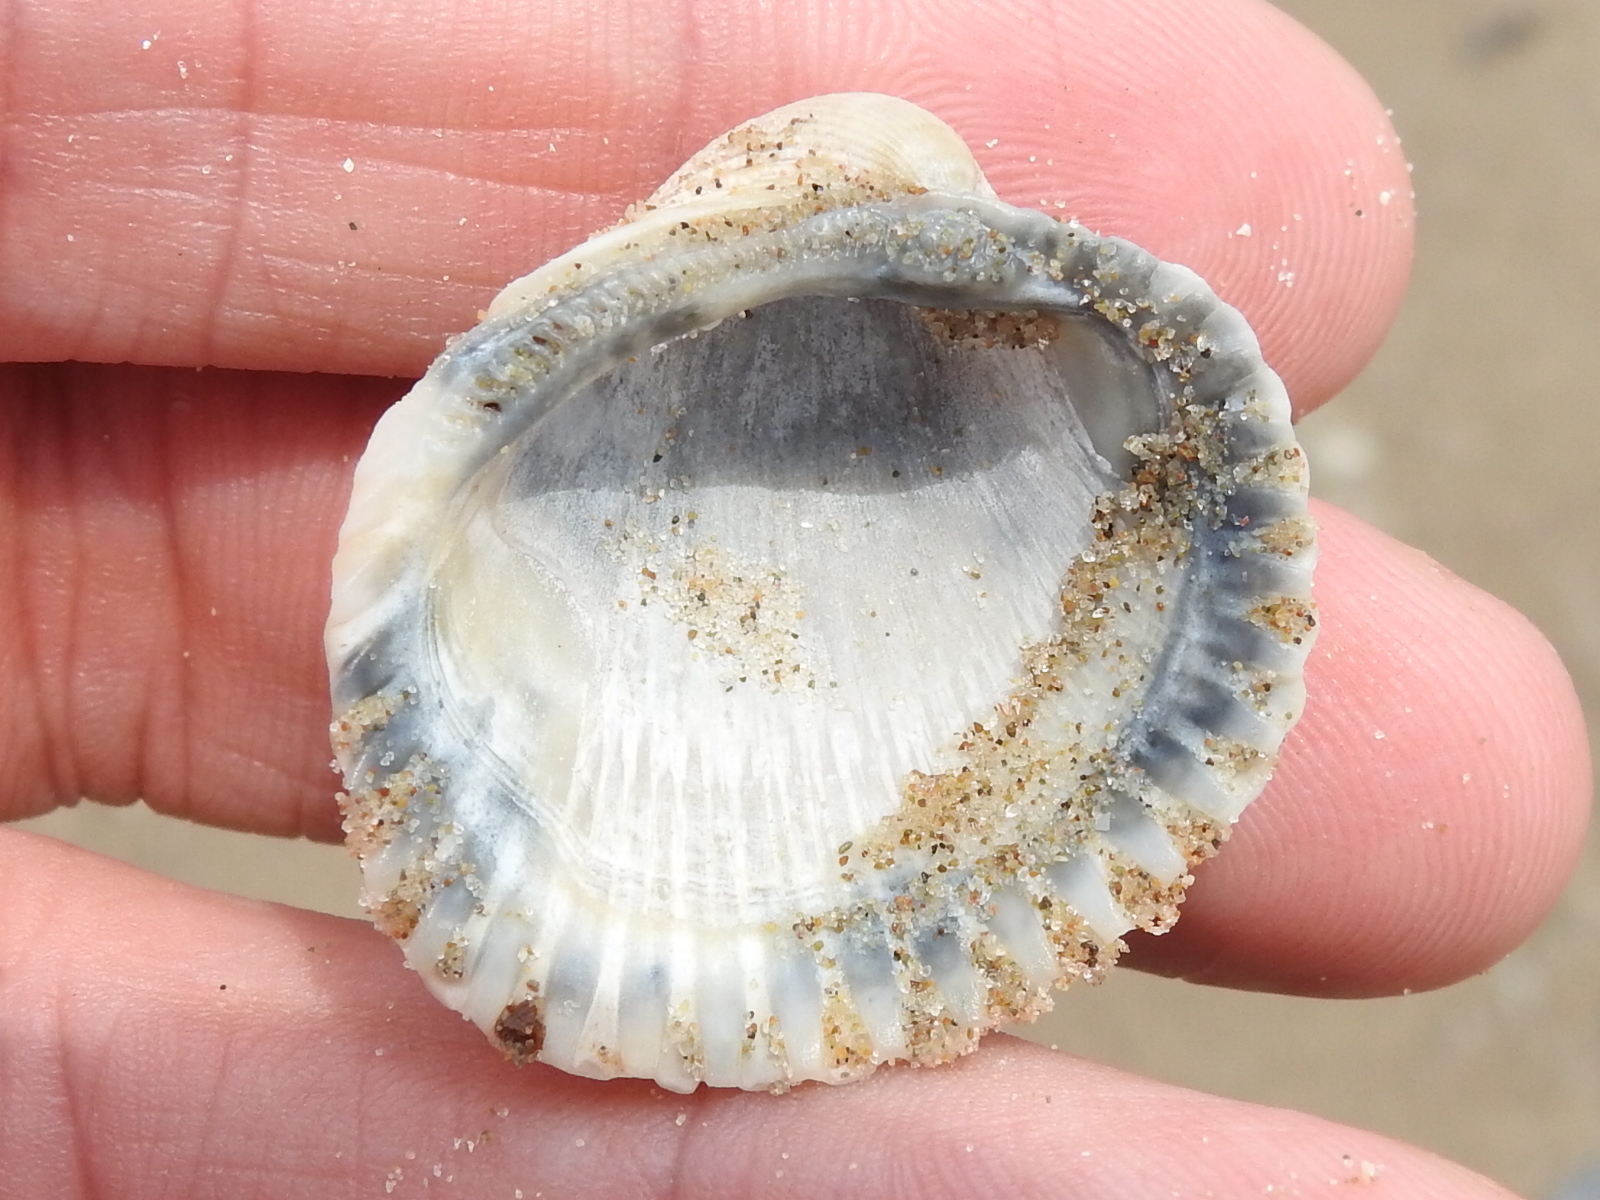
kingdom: Animalia
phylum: Mollusca
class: Bivalvia
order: Arcida
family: Arcidae
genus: Lunarca
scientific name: Lunarca ovalis
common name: Blood ark
